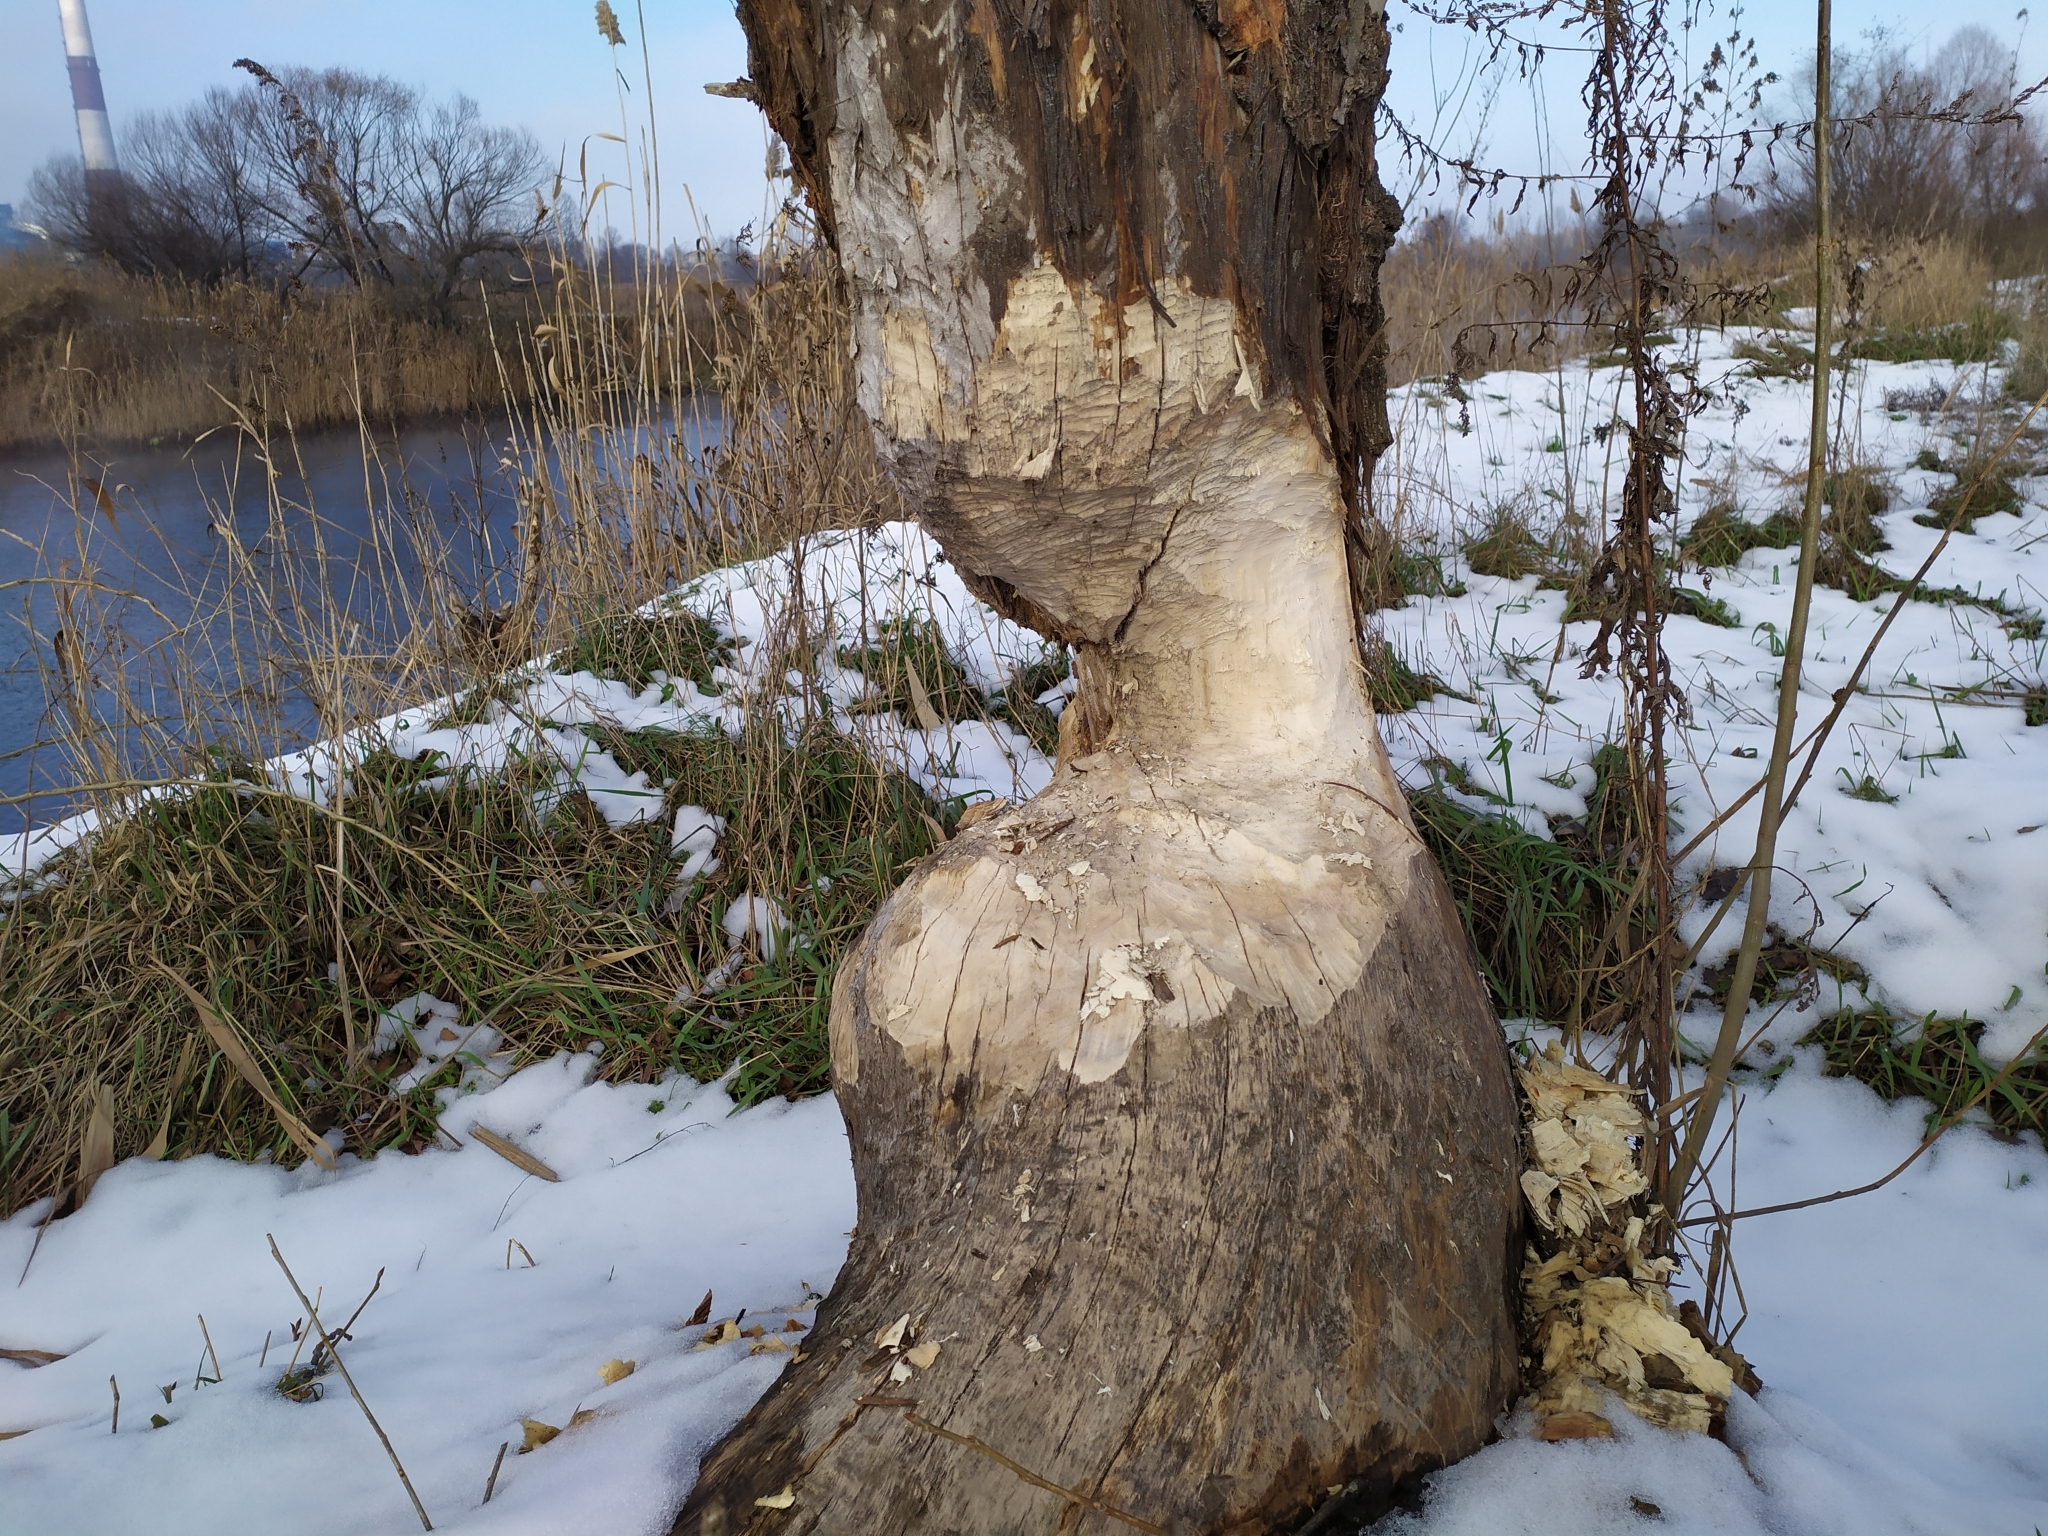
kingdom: Animalia
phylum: Chordata
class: Mammalia
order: Rodentia
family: Castoridae
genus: Castor
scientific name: Castor fiber
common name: Eurasian beaver
